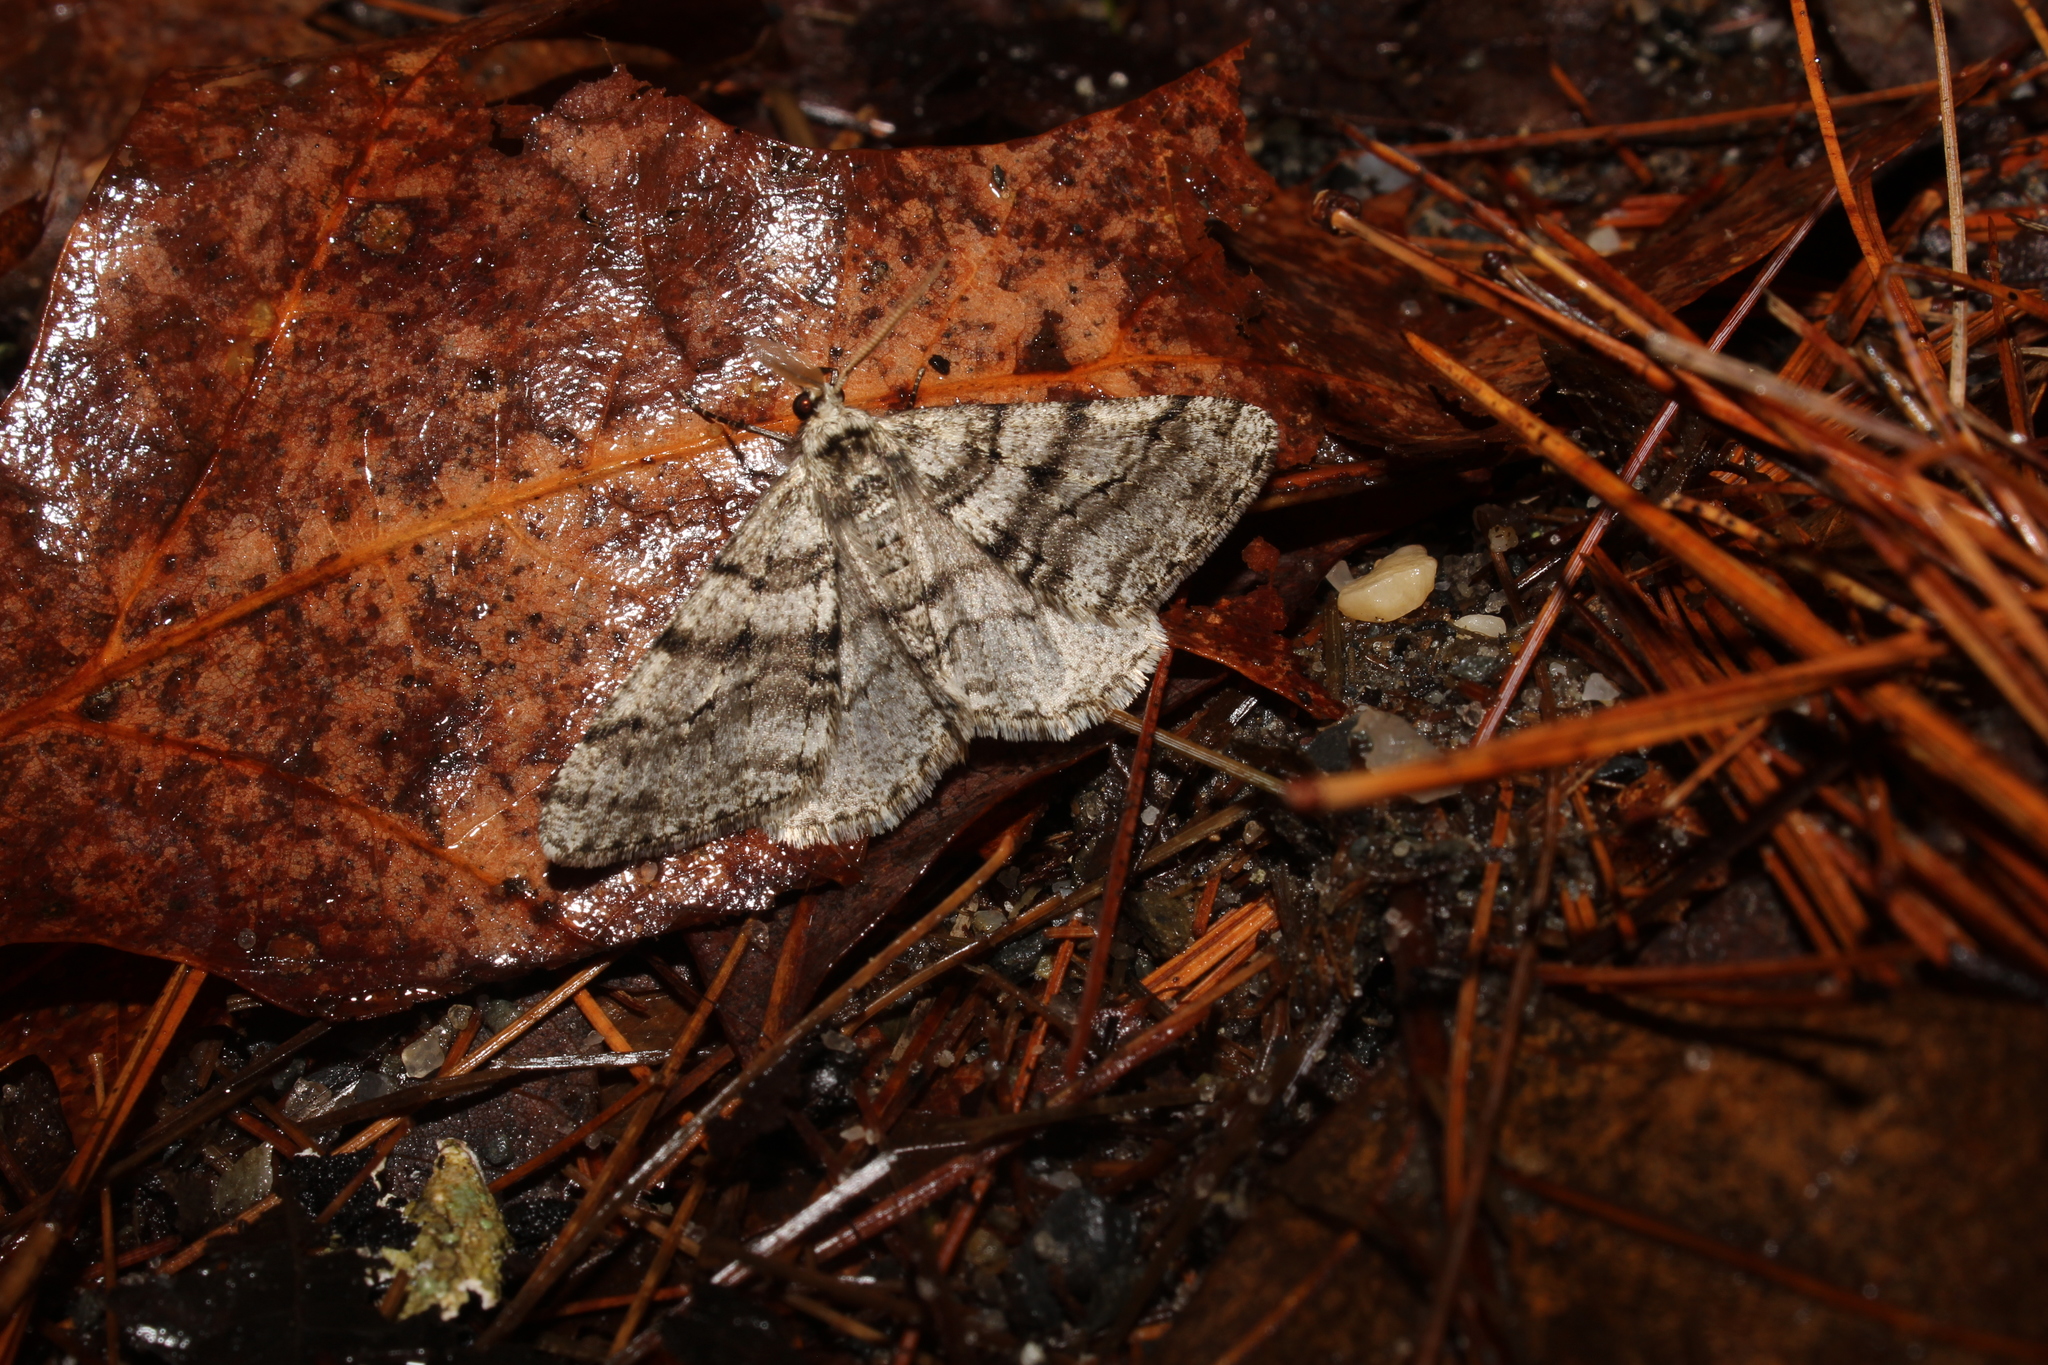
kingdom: Animalia
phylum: Arthropoda
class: Insecta
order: Lepidoptera
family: Geometridae
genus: Phigalia
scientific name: Phigalia titea
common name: Spiny looper
